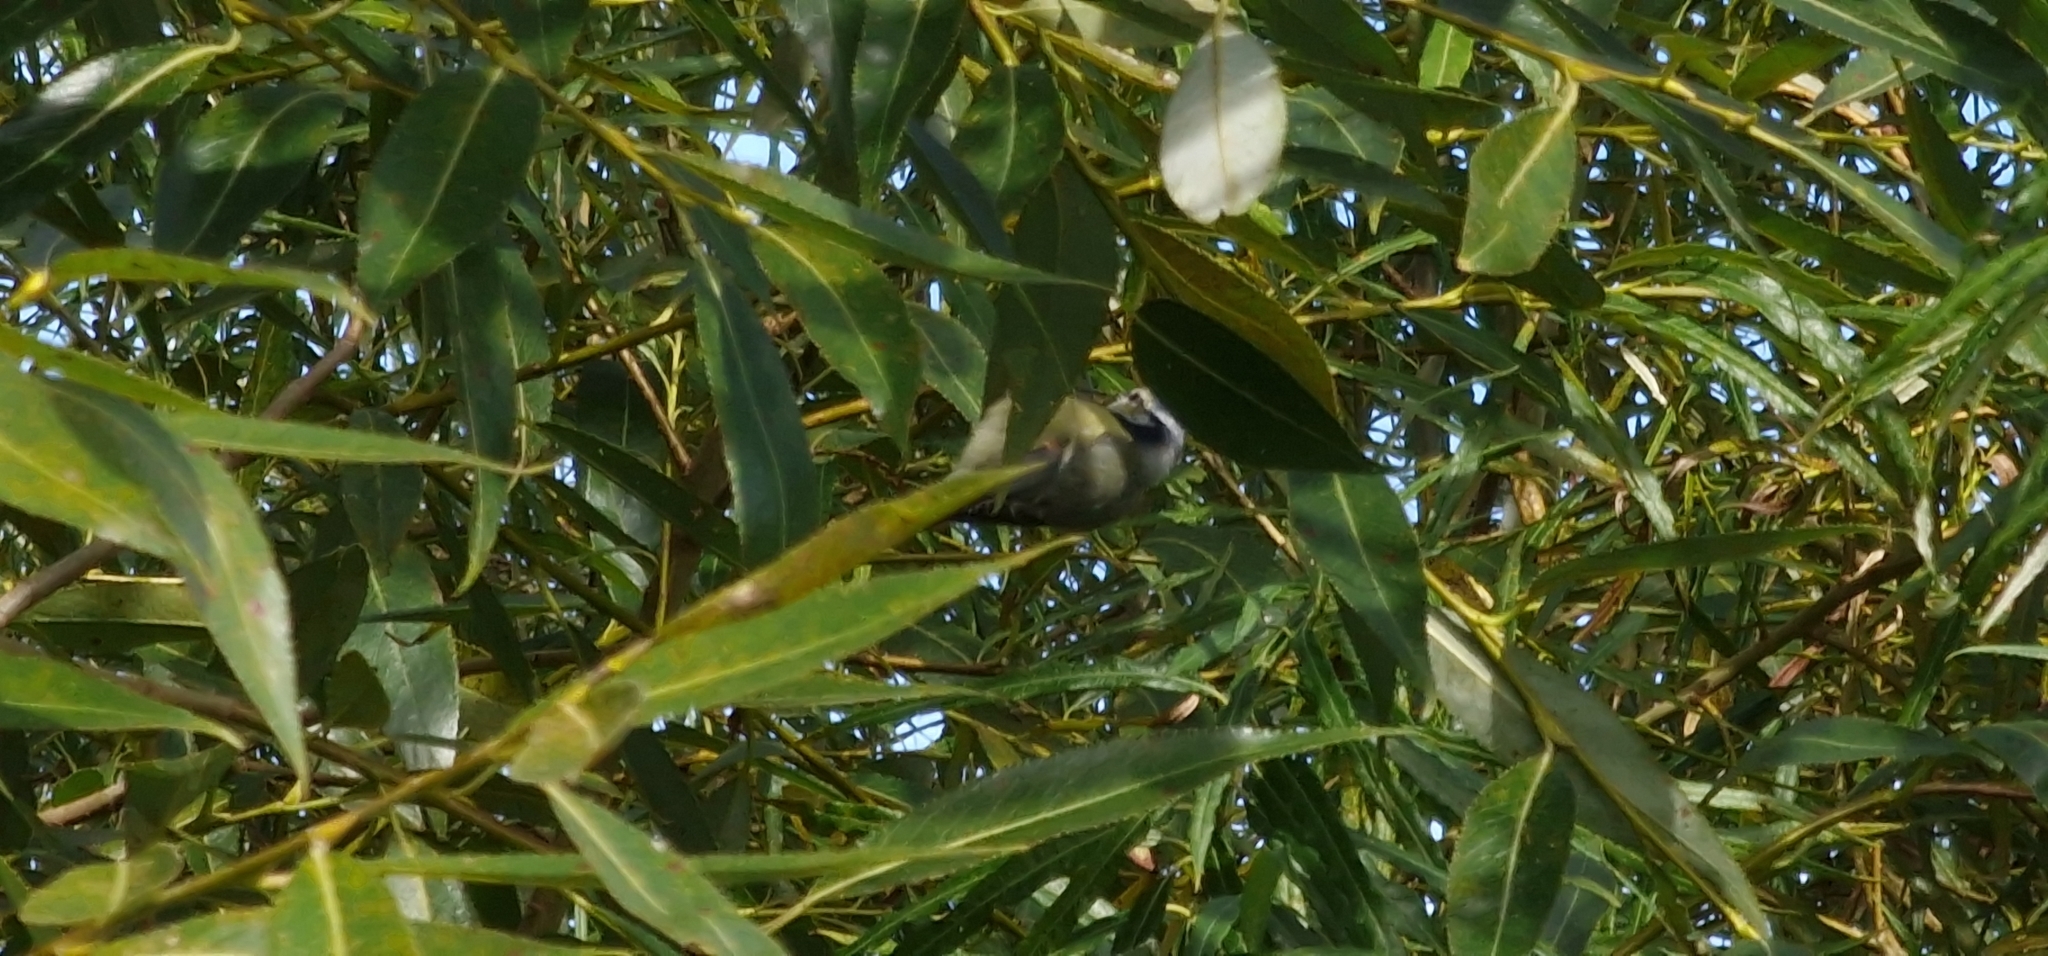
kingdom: Animalia
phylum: Chordata
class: Aves
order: Passeriformes
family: Paridae
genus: Cyanistes
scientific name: Cyanistes caeruleus
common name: Eurasian blue tit
